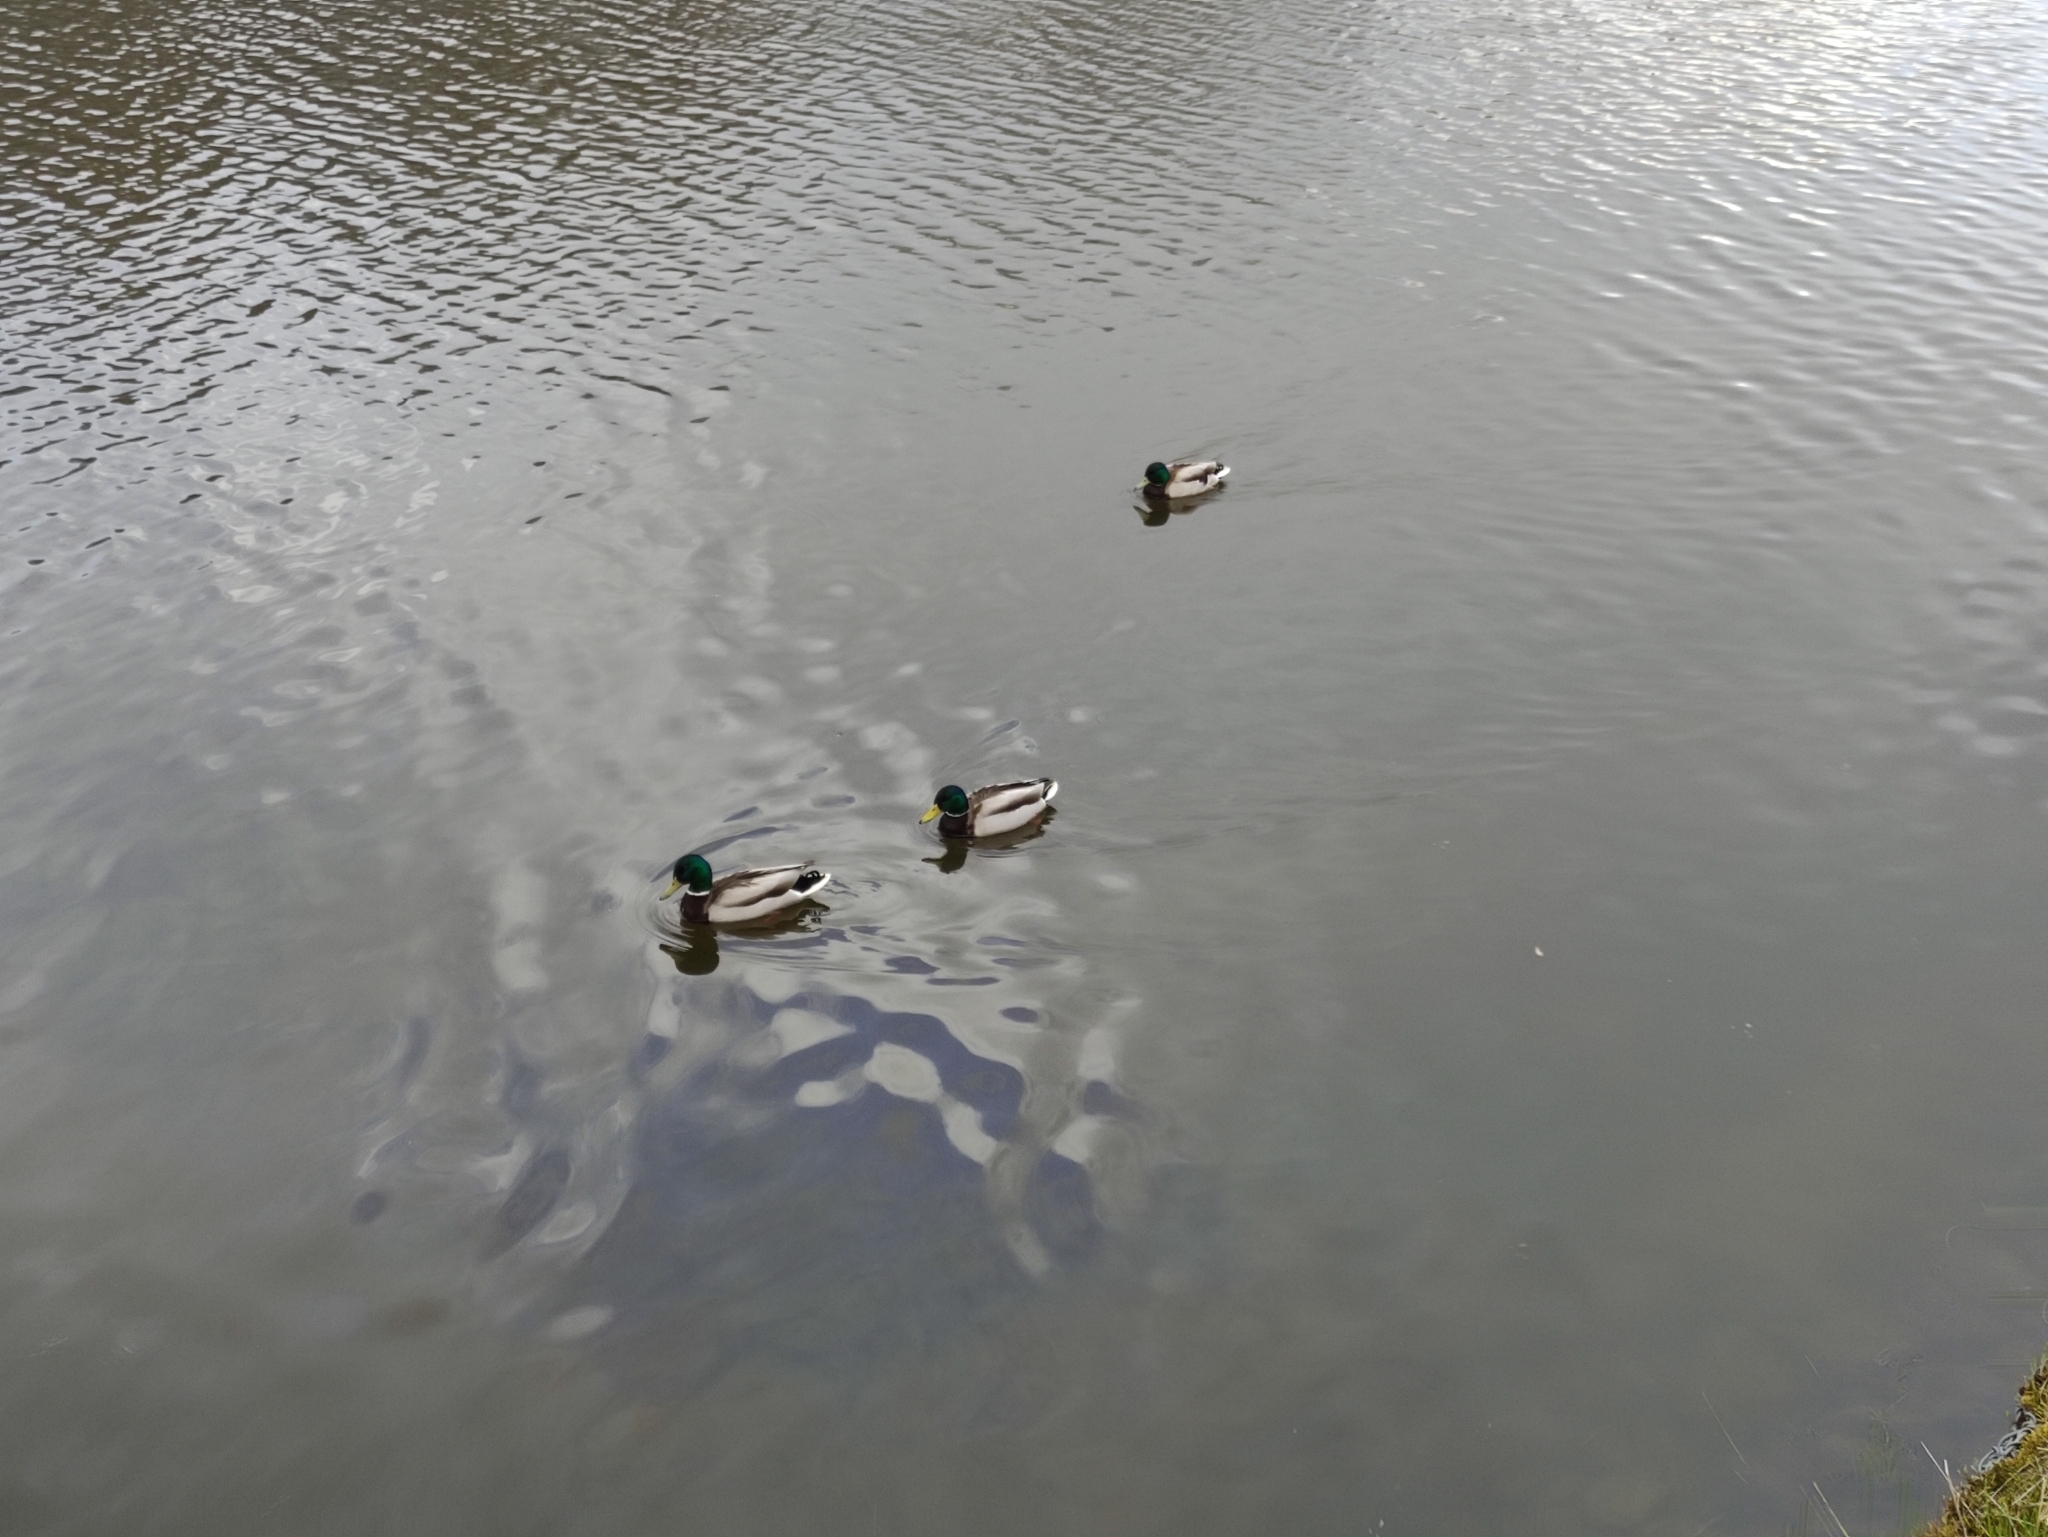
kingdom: Animalia
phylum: Chordata
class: Aves
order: Anseriformes
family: Anatidae
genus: Anas
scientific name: Anas platyrhynchos
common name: Mallard
